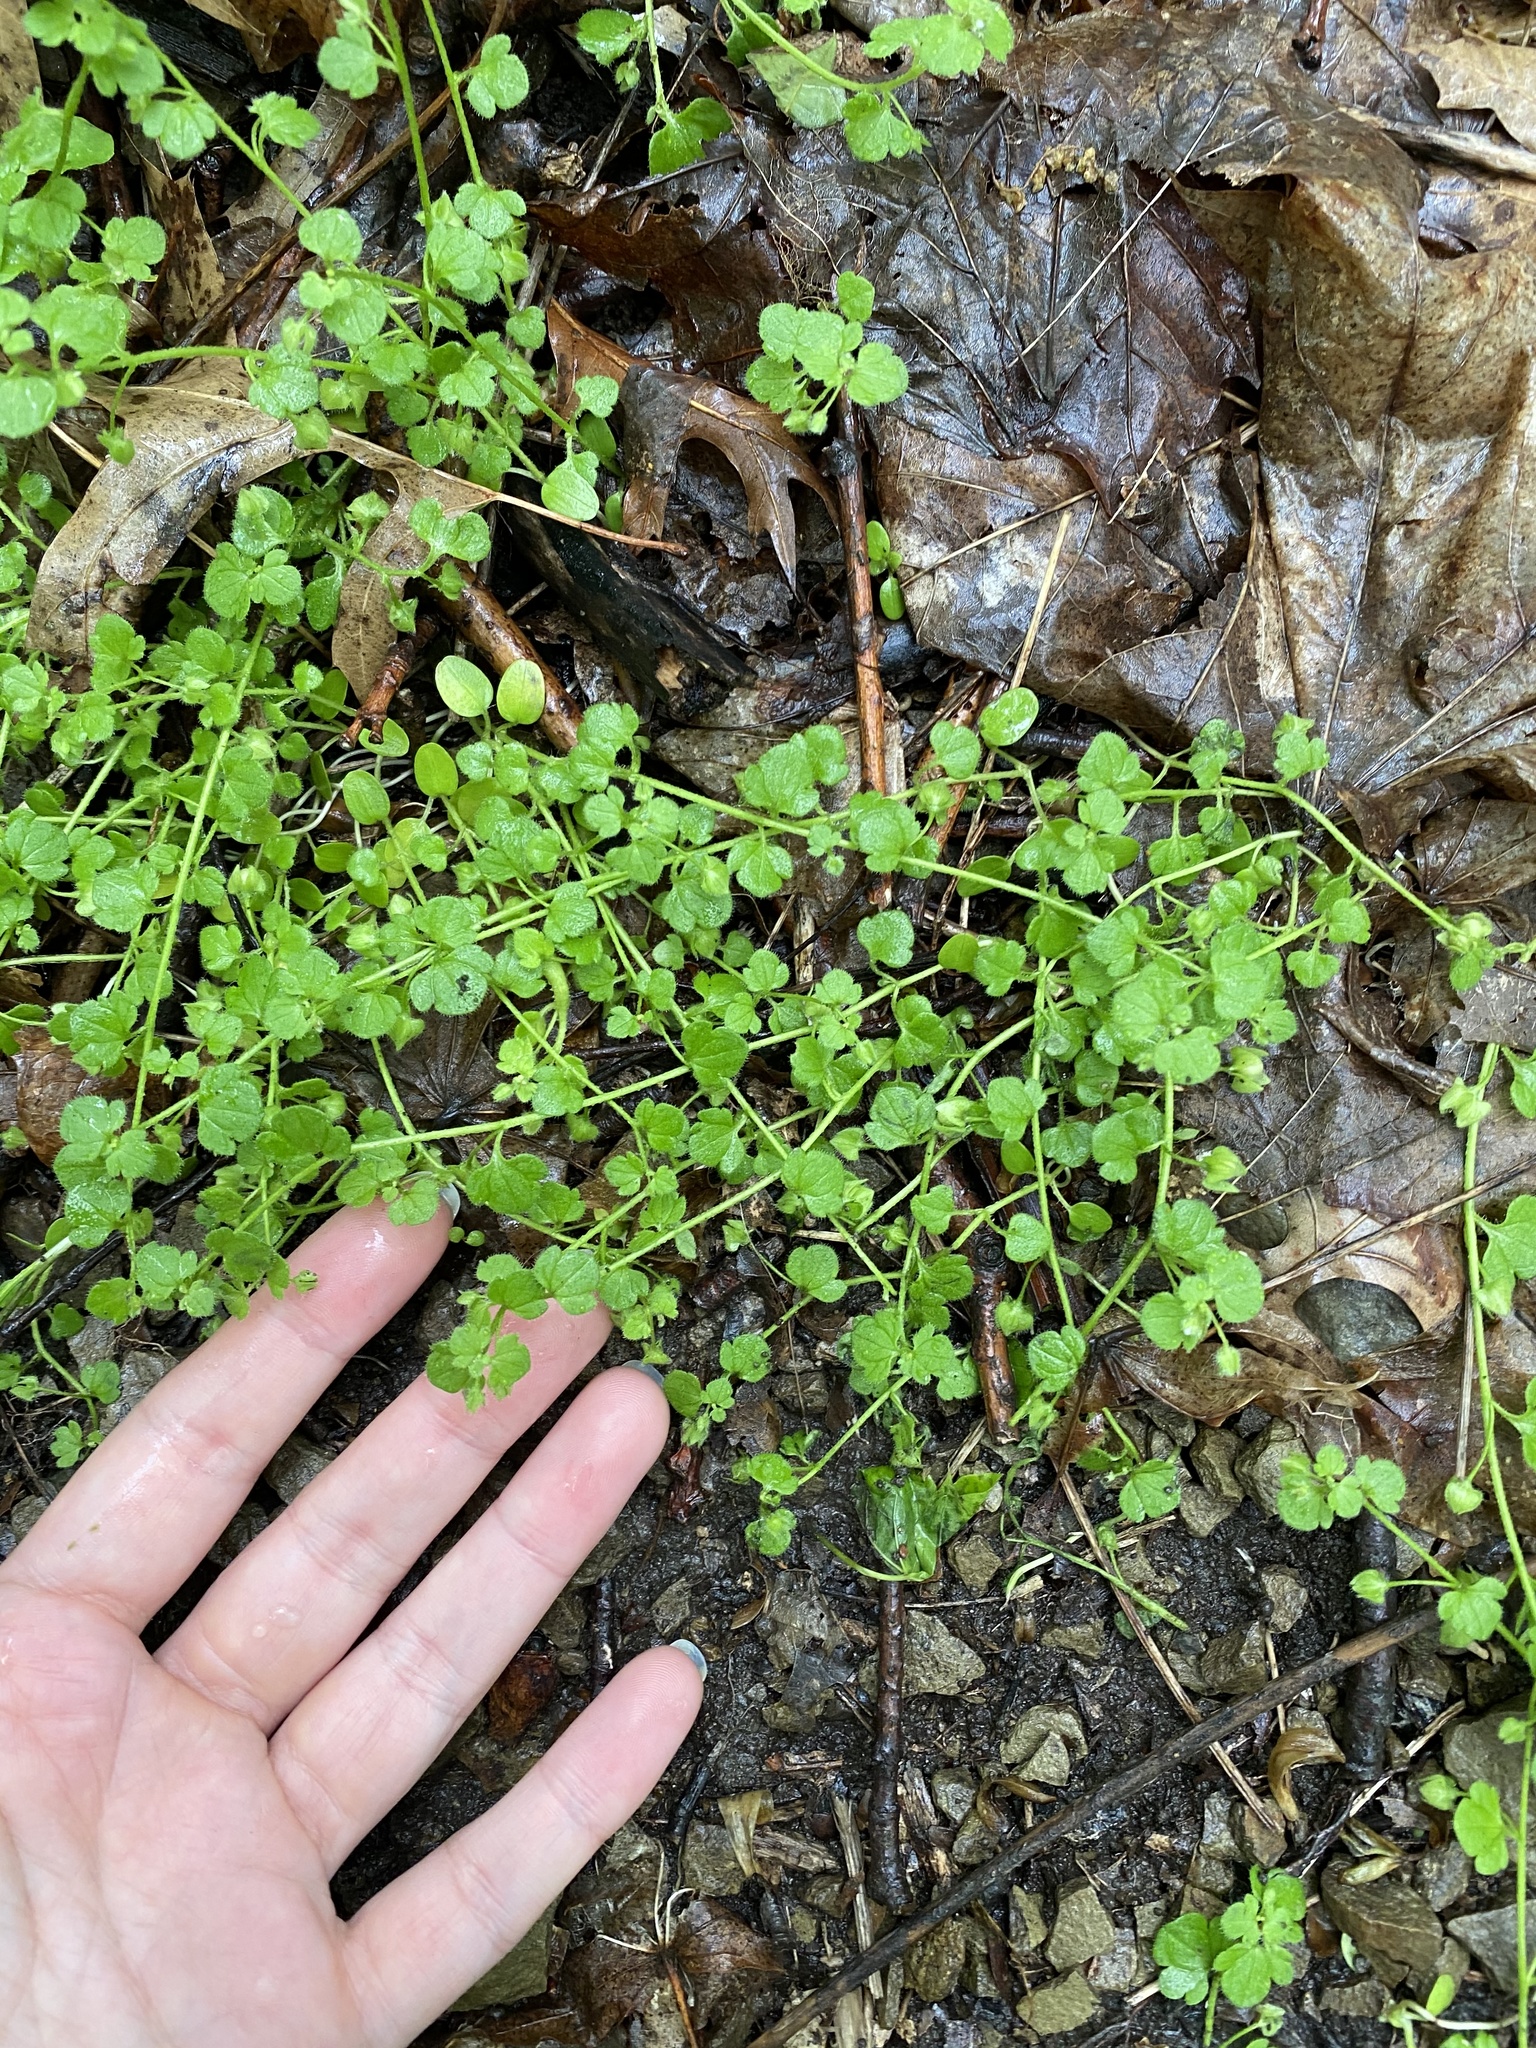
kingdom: Plantae
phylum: Tracheophyta
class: Magnoliopsida
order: Lamiales
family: Plantaginaceae
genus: Veronica
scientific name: Veronica hederifolia
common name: Ivy-leaved speedwell
